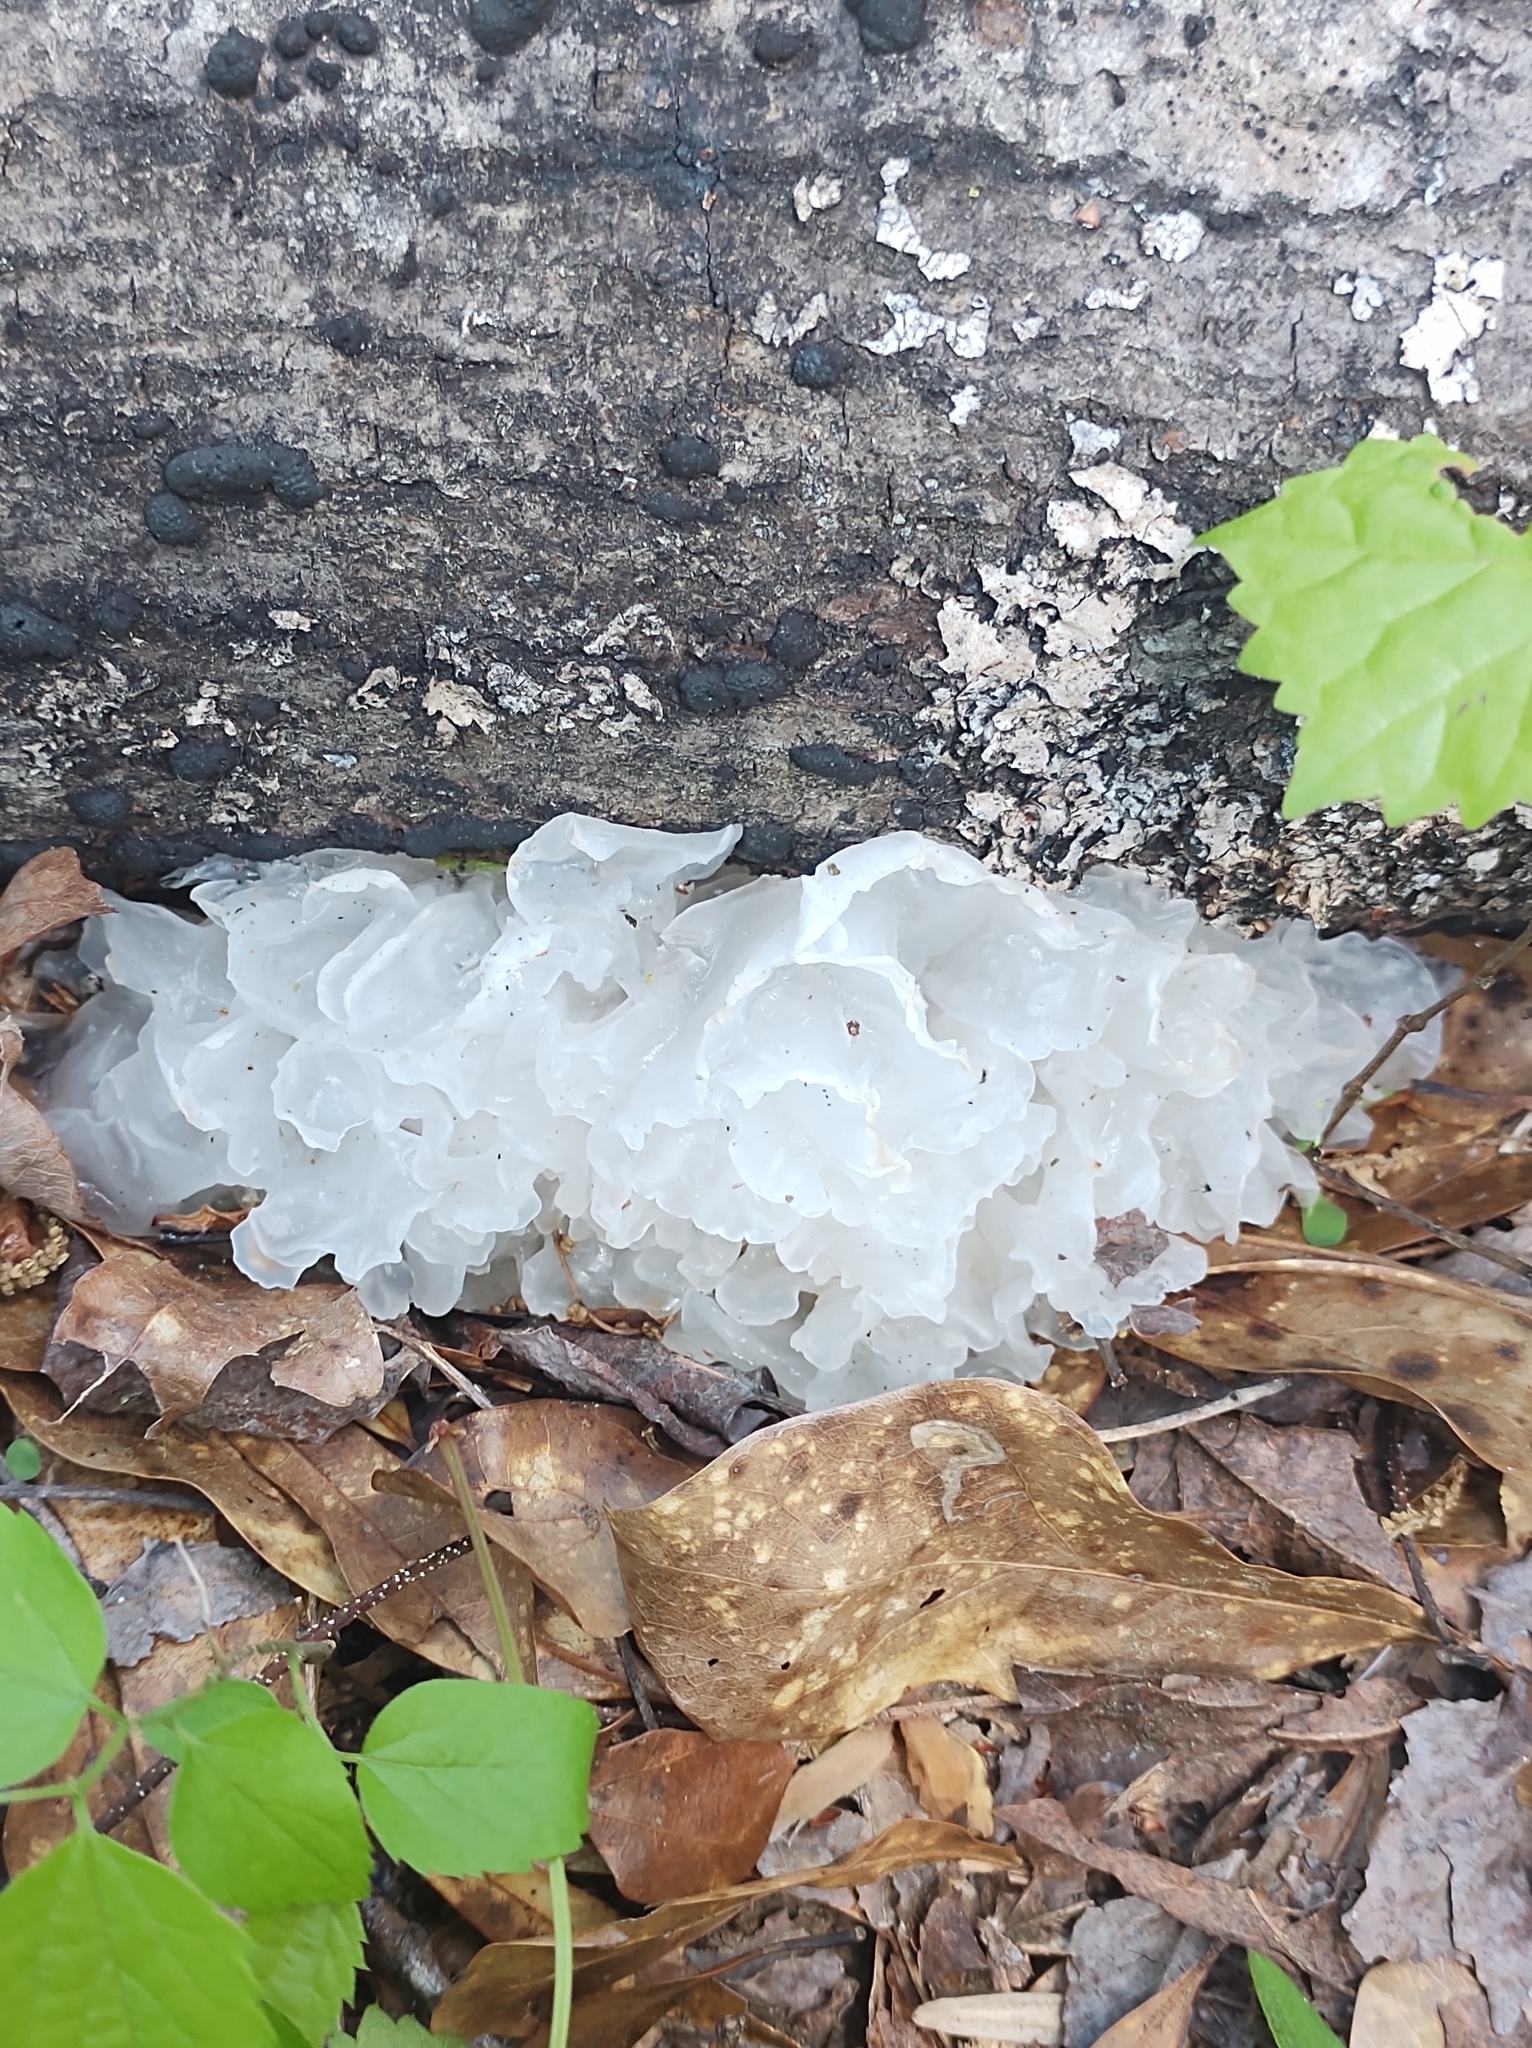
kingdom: Fungi
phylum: Basidiomycota
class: Tremellomycetes
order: Tremellales
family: Tremellaceae
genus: Tremella
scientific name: Tremella fuciformis
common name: Snow fungus
